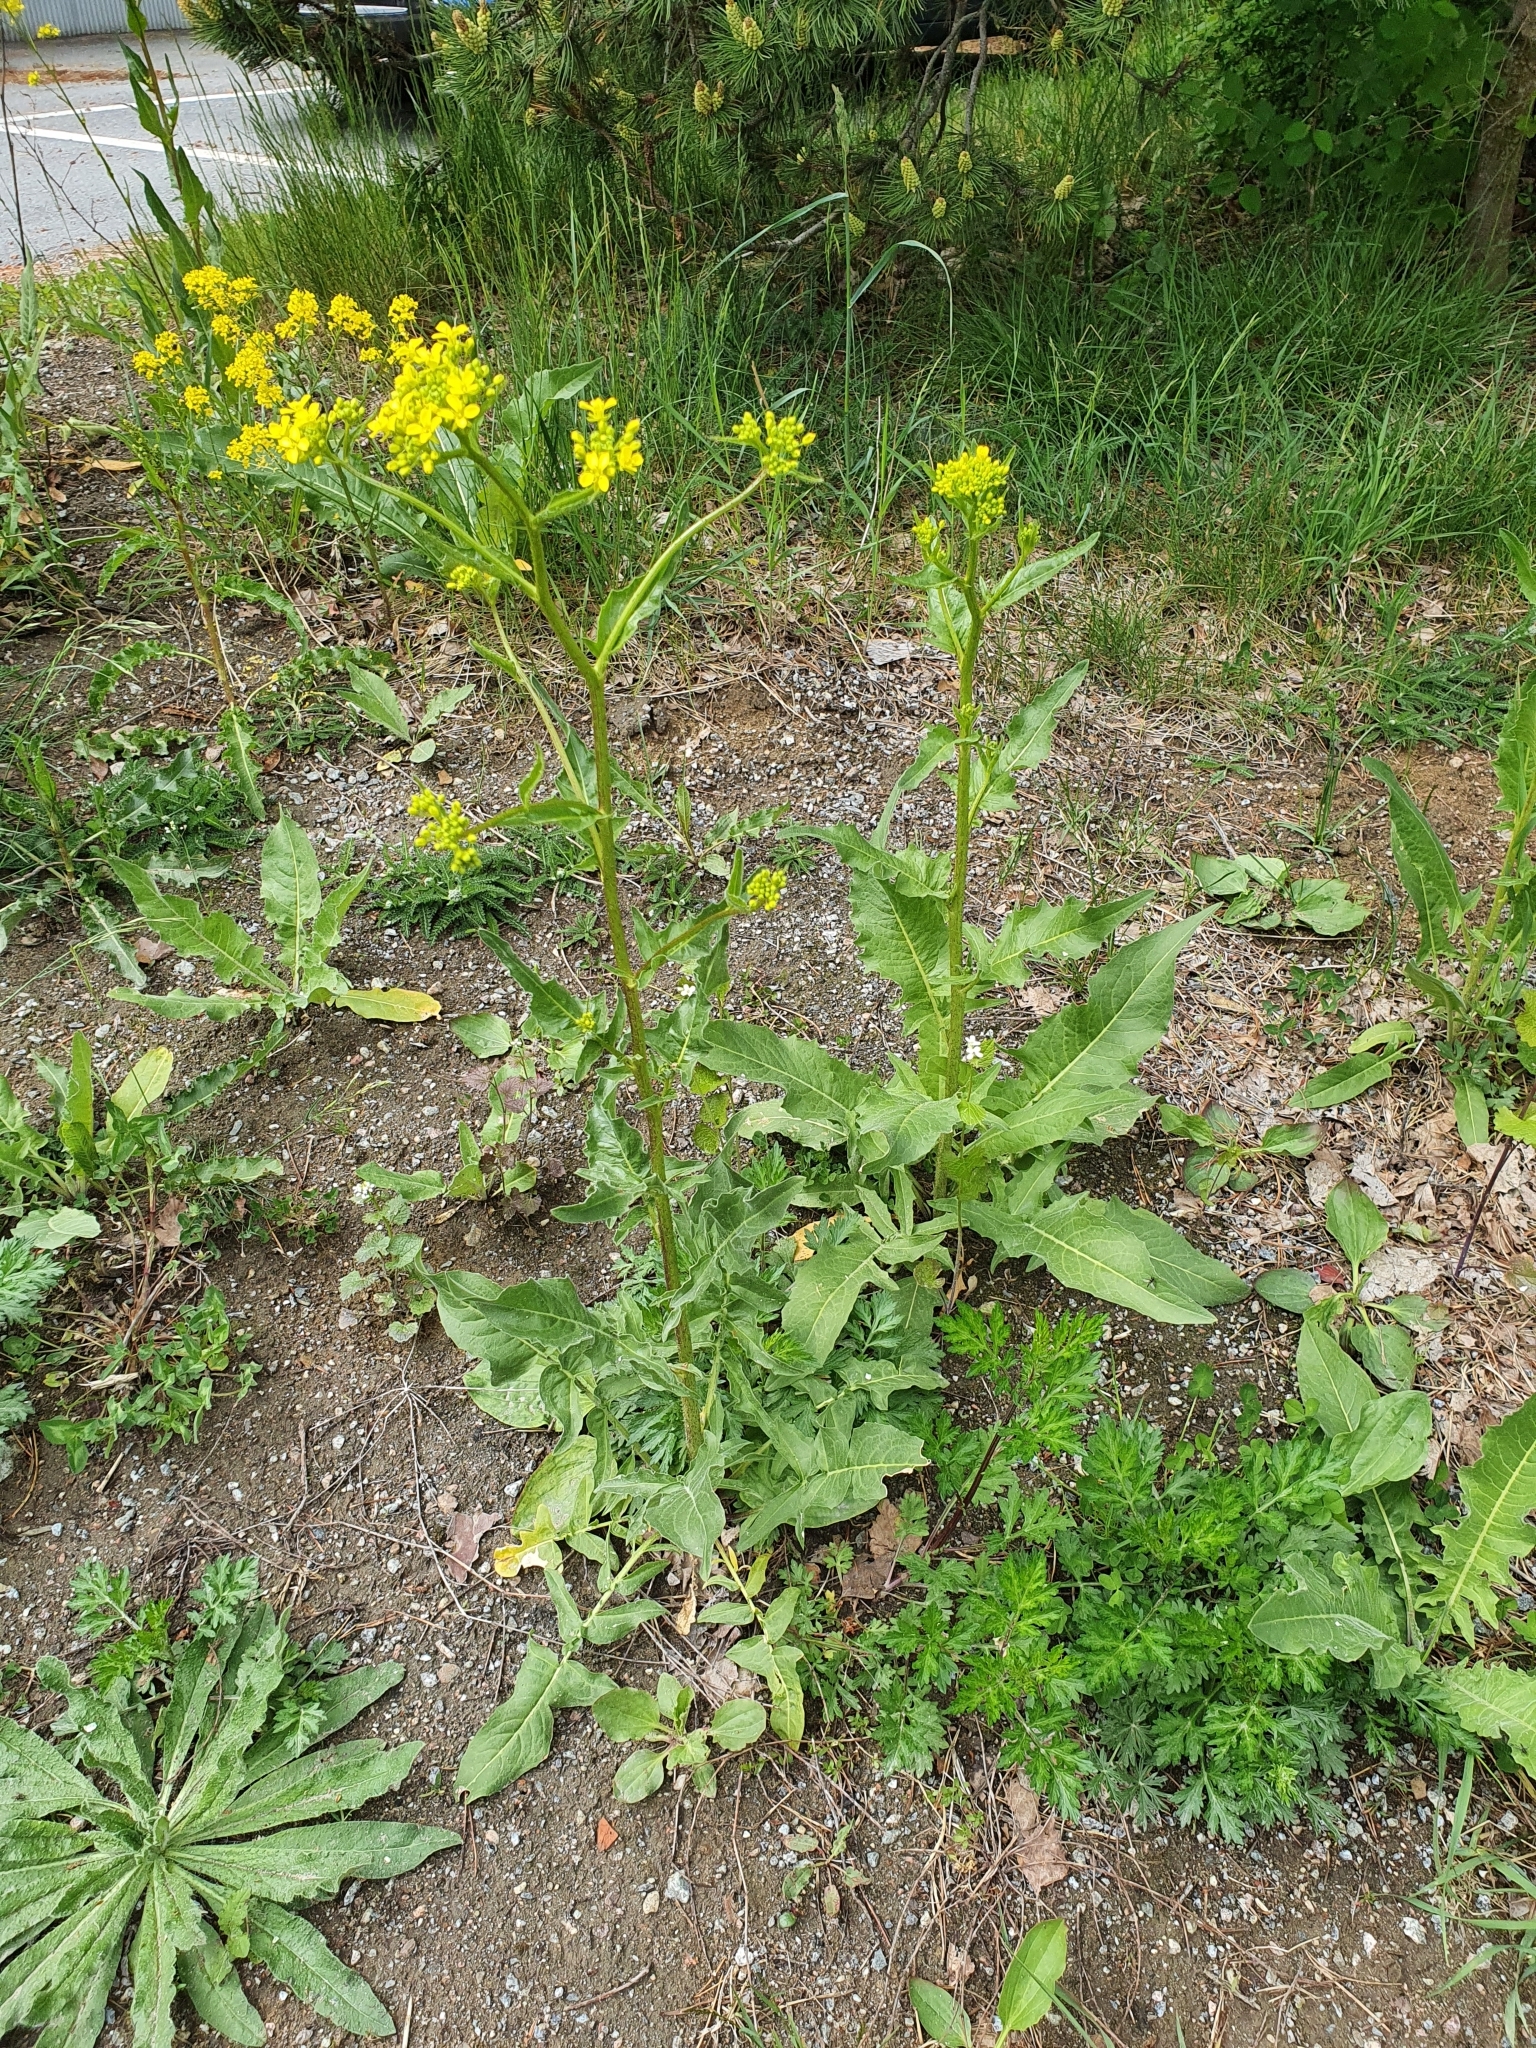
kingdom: Plantae
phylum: Tracheophyta
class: Magnoliopsida
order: Brassicales
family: Brassicaceae
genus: Bunias
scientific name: Bunias orientalis
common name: Warty-cabbage
